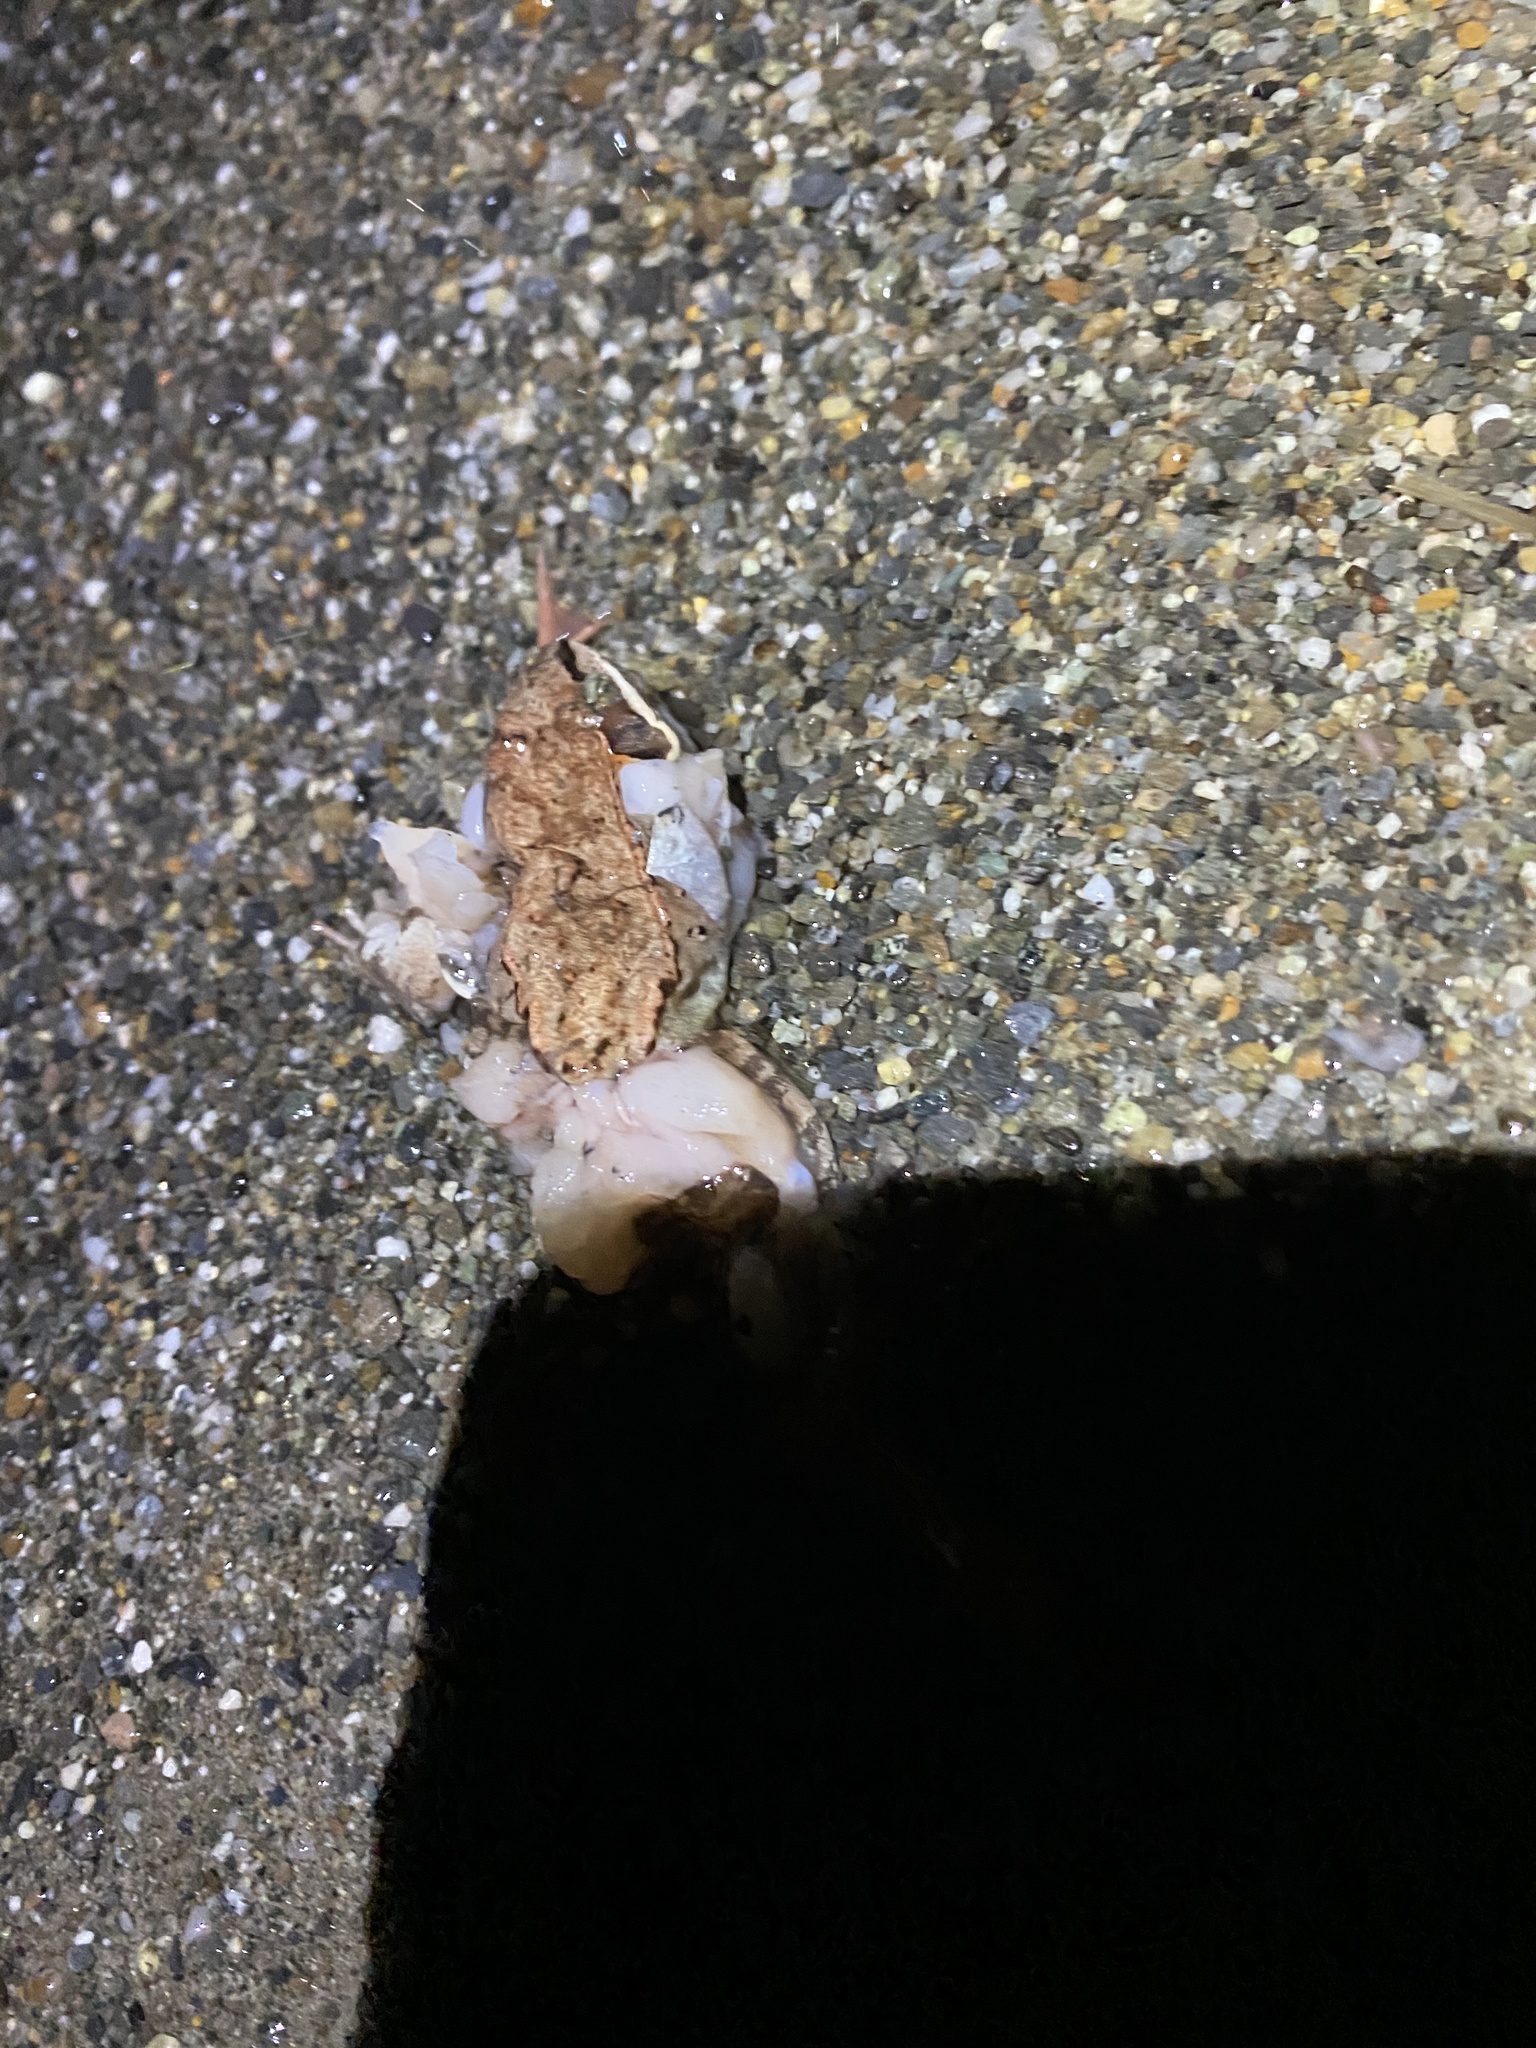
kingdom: Animalia
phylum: Chordata
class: Amphibia
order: Anura
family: Ranidae
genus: Lithobates
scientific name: Lithobates sylvaticus
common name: Wood frog
